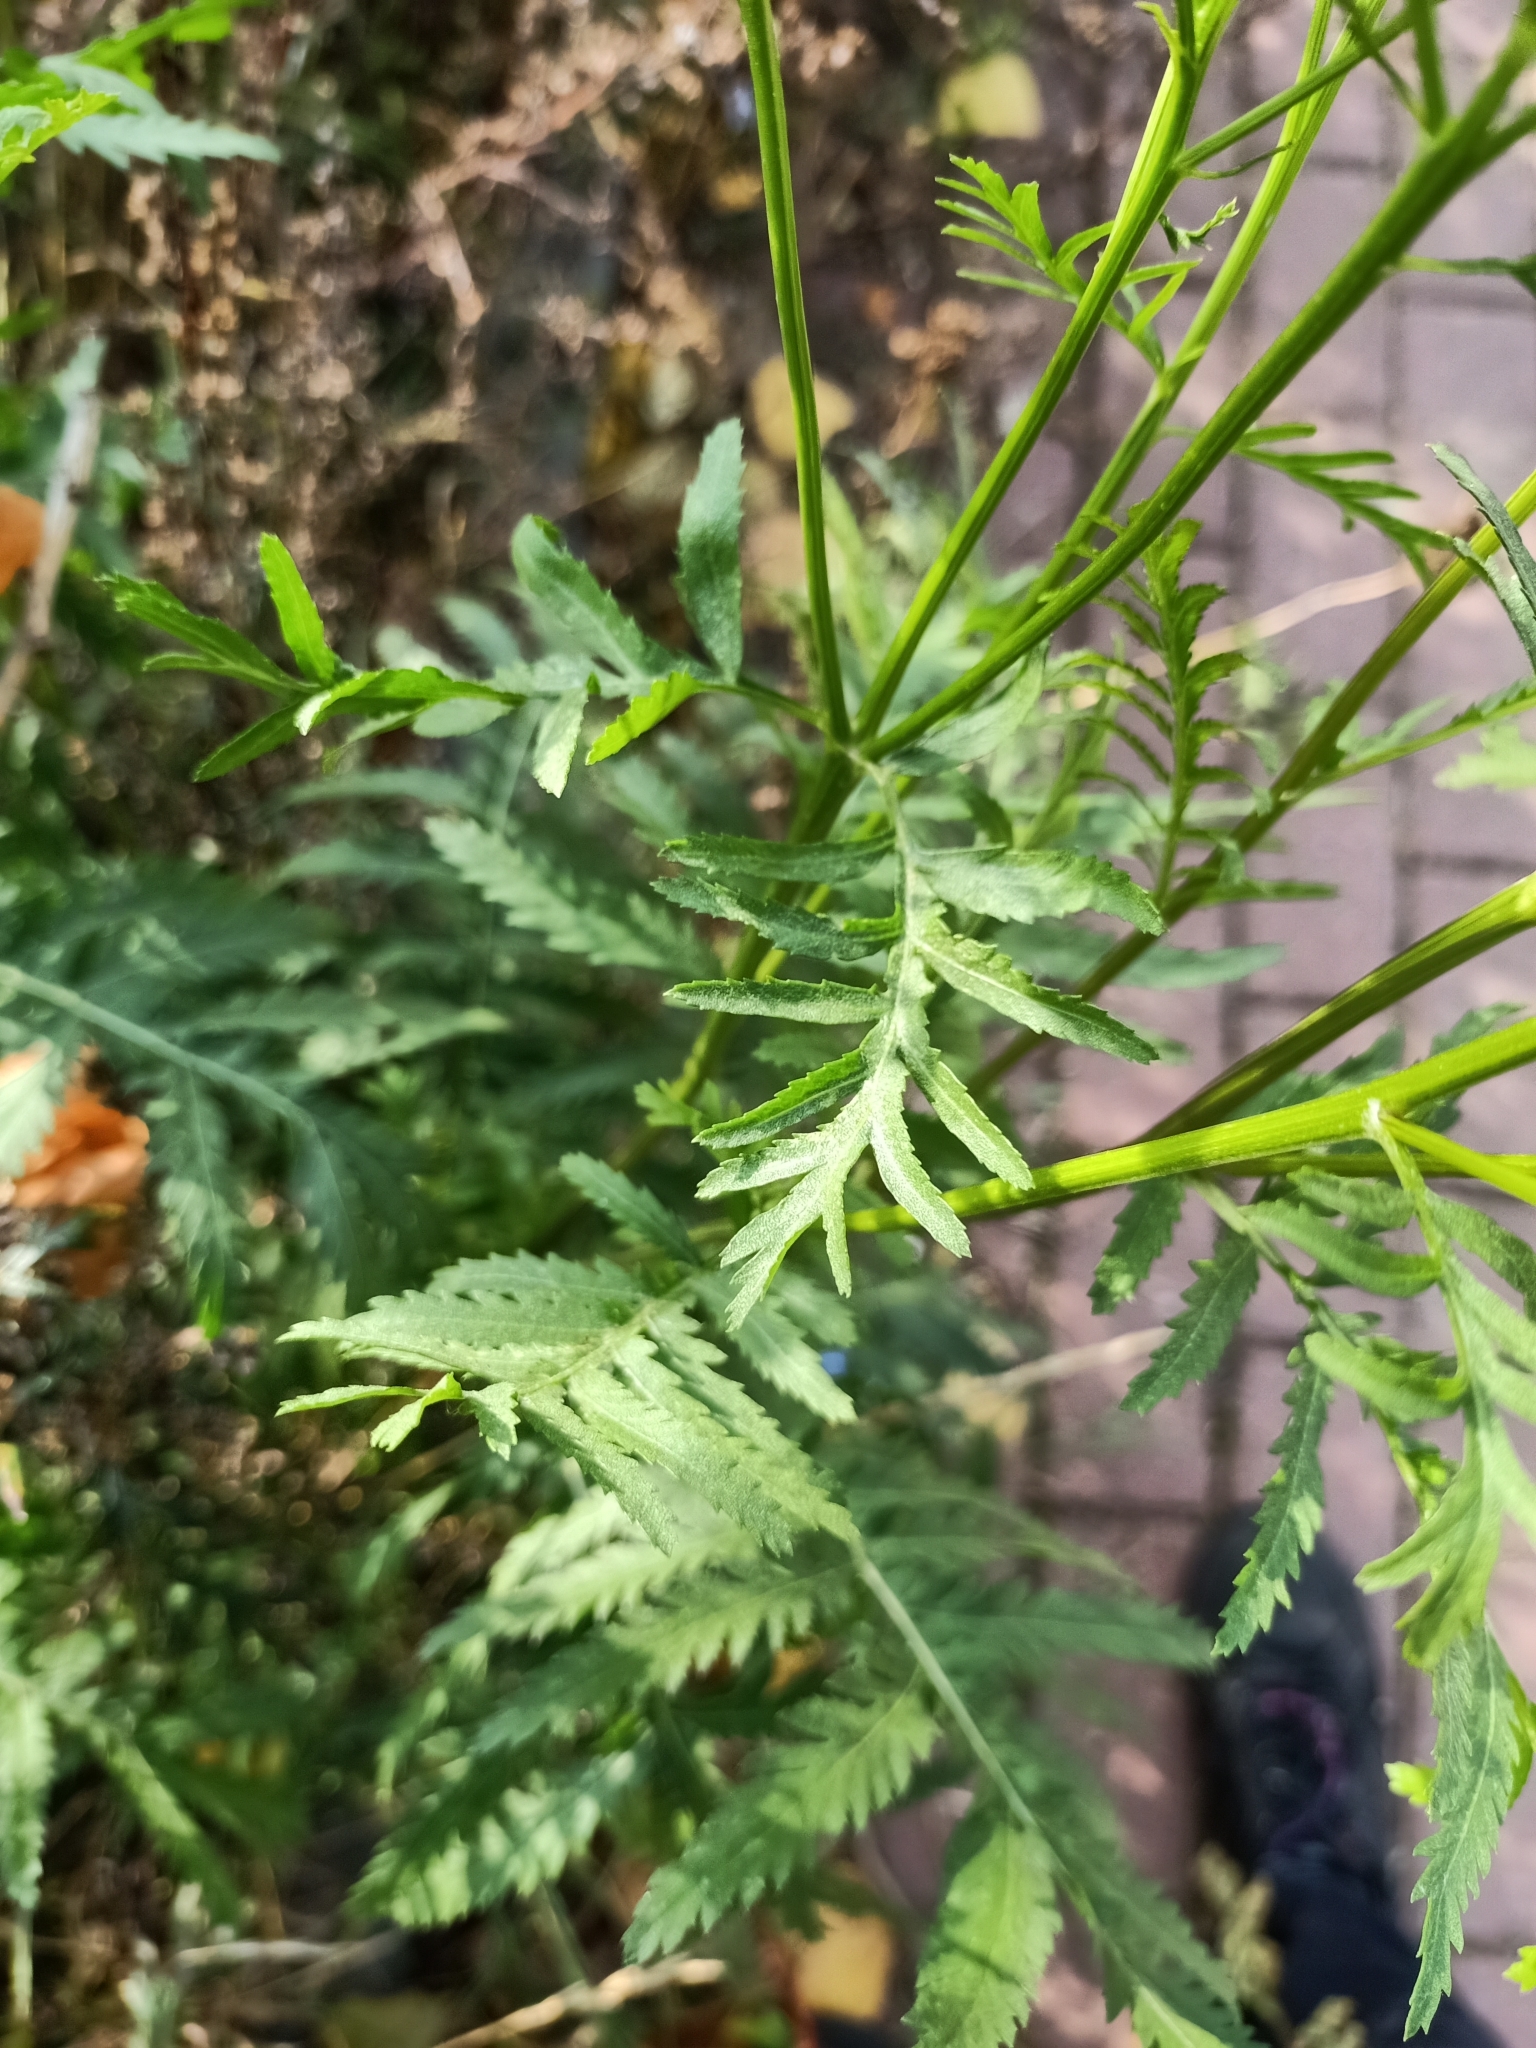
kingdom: Plantae
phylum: Tracheophyta
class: Magnoliopsida
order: Asterales
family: Asteraceae
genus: Tanacetum
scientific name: Tanacetum vulgare
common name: Common tansy
